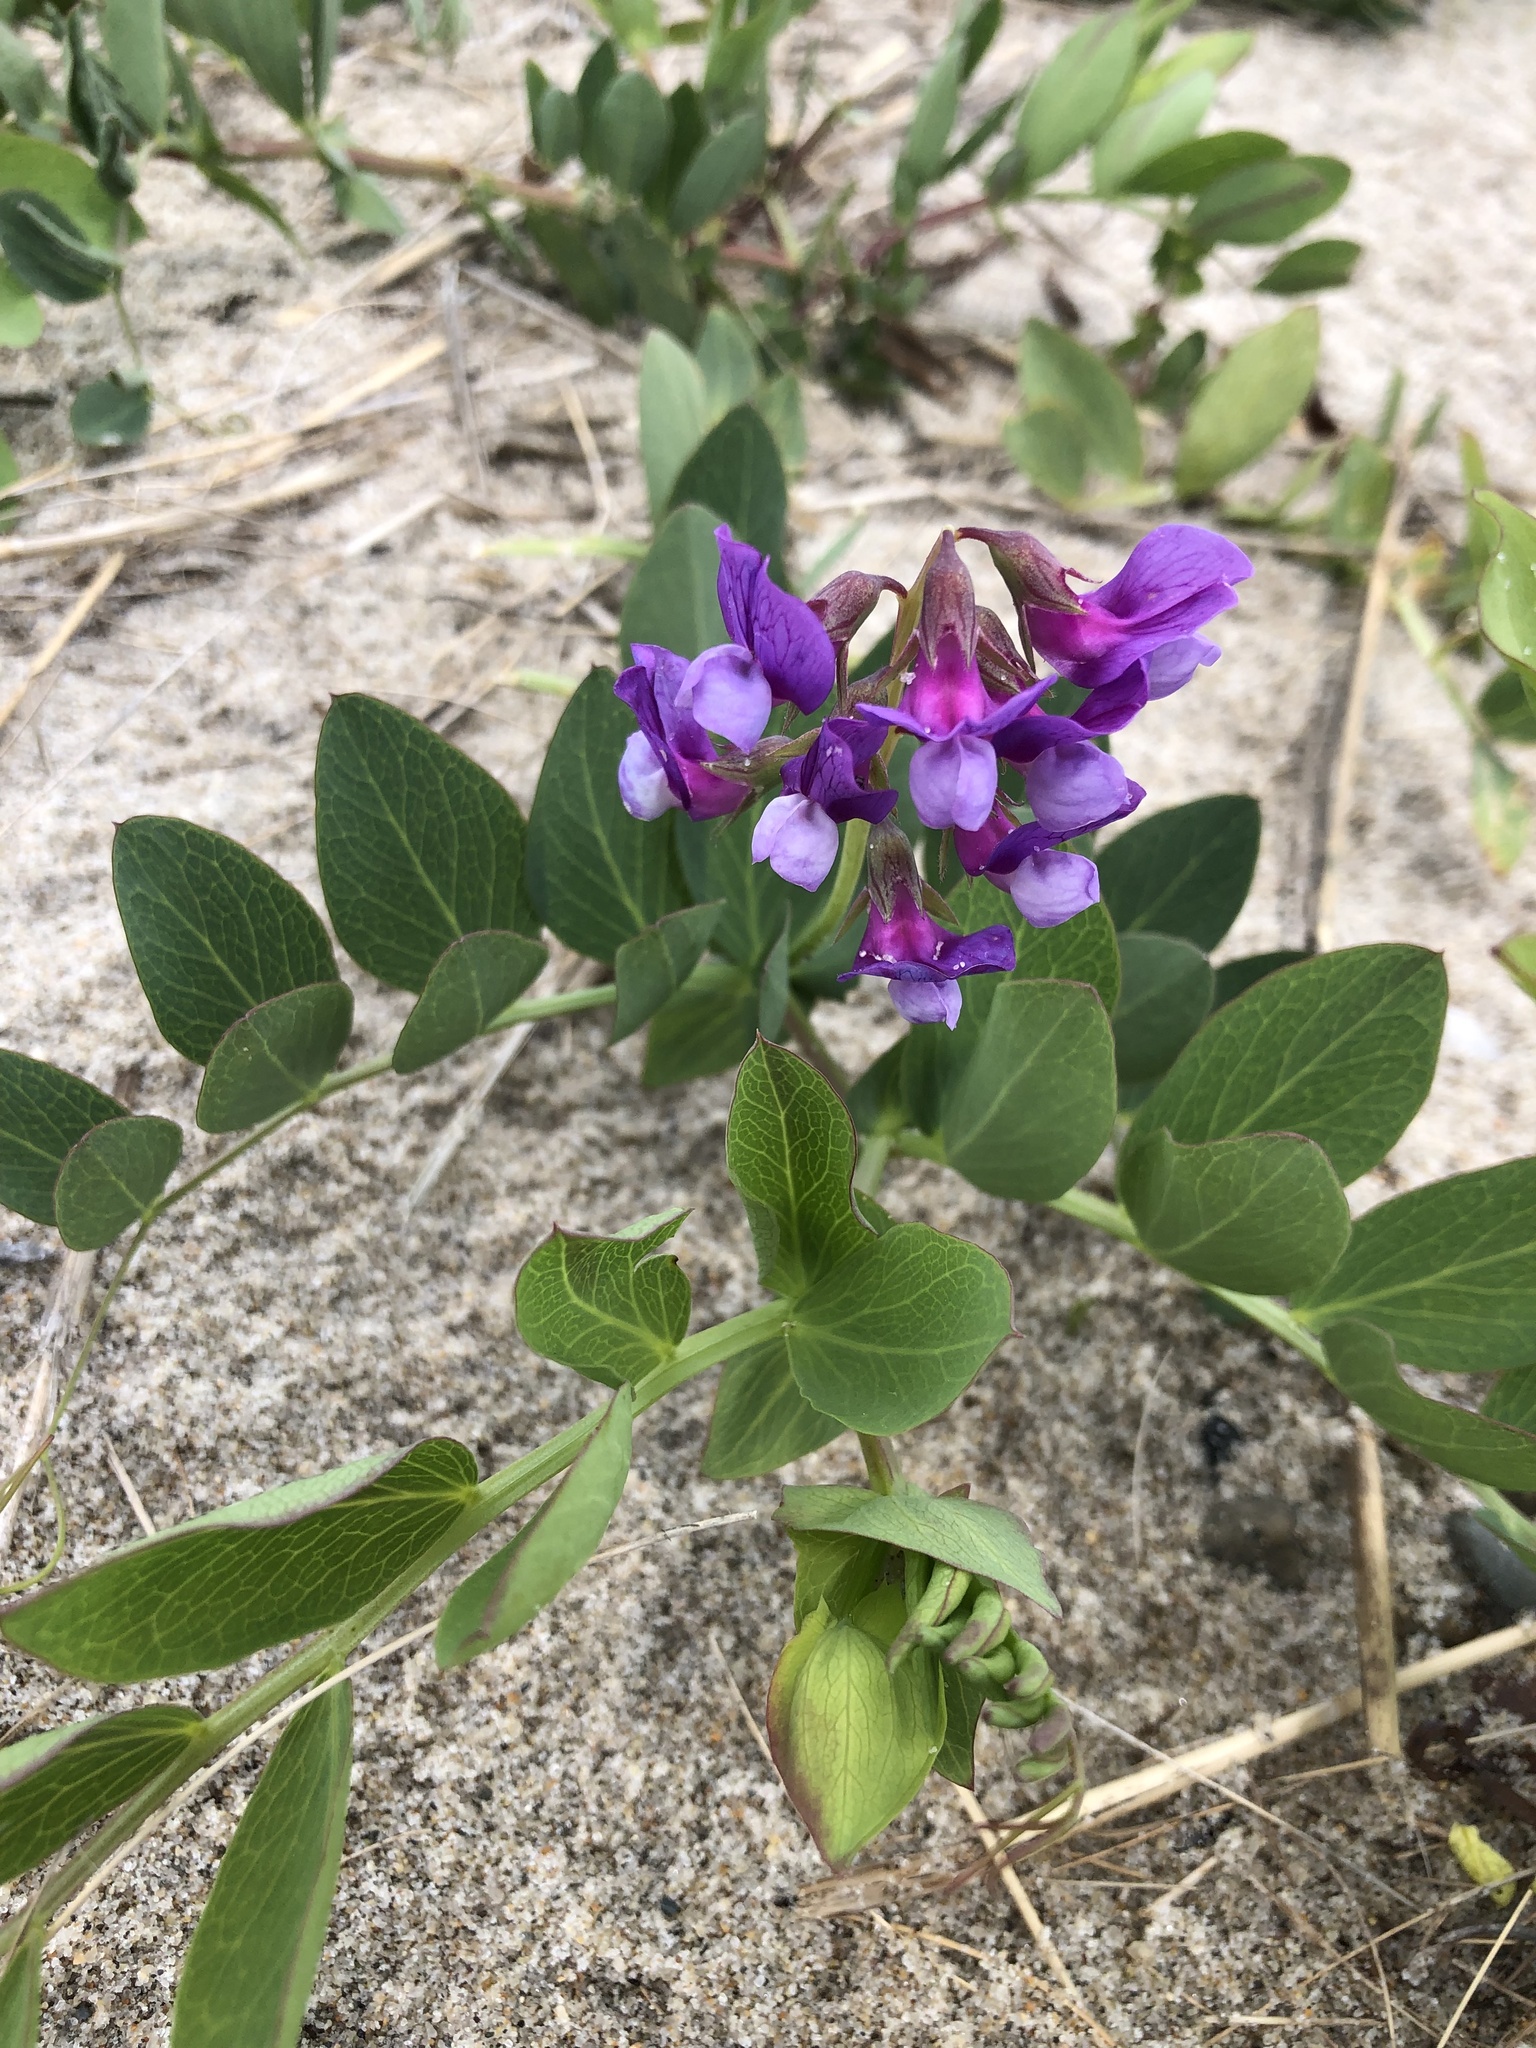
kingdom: Plantae
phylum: Tracheophyta
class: Magnoliopsida
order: Fabales
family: Fabaceae
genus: Lathyrus
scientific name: Lathyrus japonicus
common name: Sea pea
